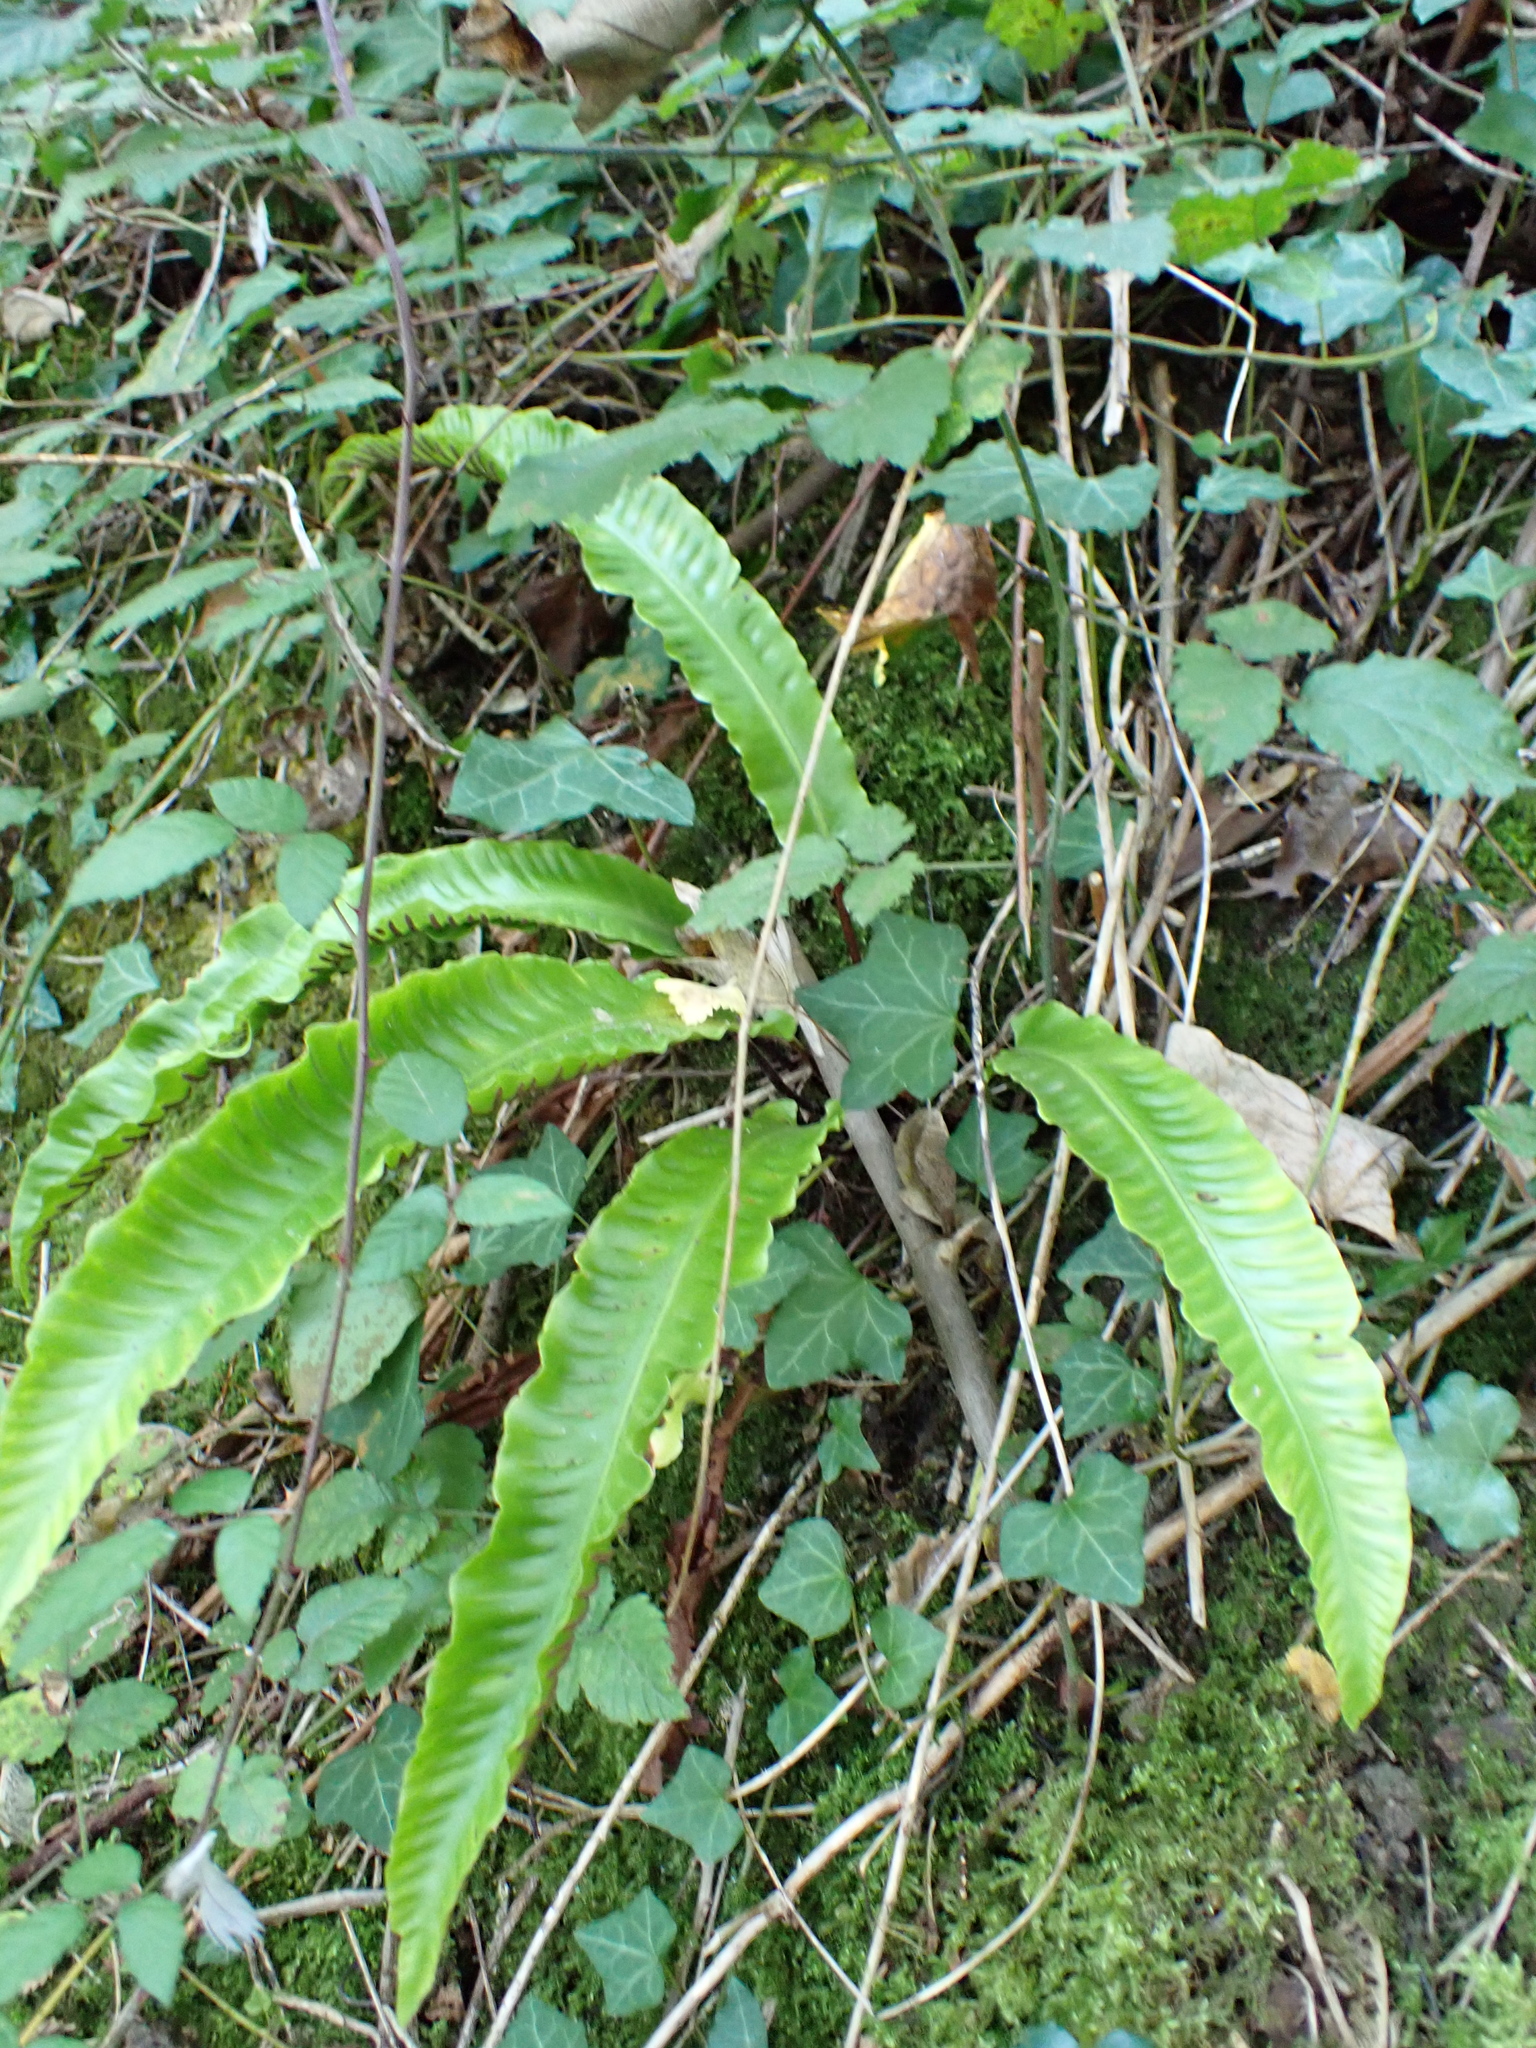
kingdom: Plantae
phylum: Tracheophyta
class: Polypodiopsida
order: Polypodiales
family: Aspleniaceae
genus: Asplenium
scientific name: Asplenium scolopendrium
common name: Hart's-tongue fern
